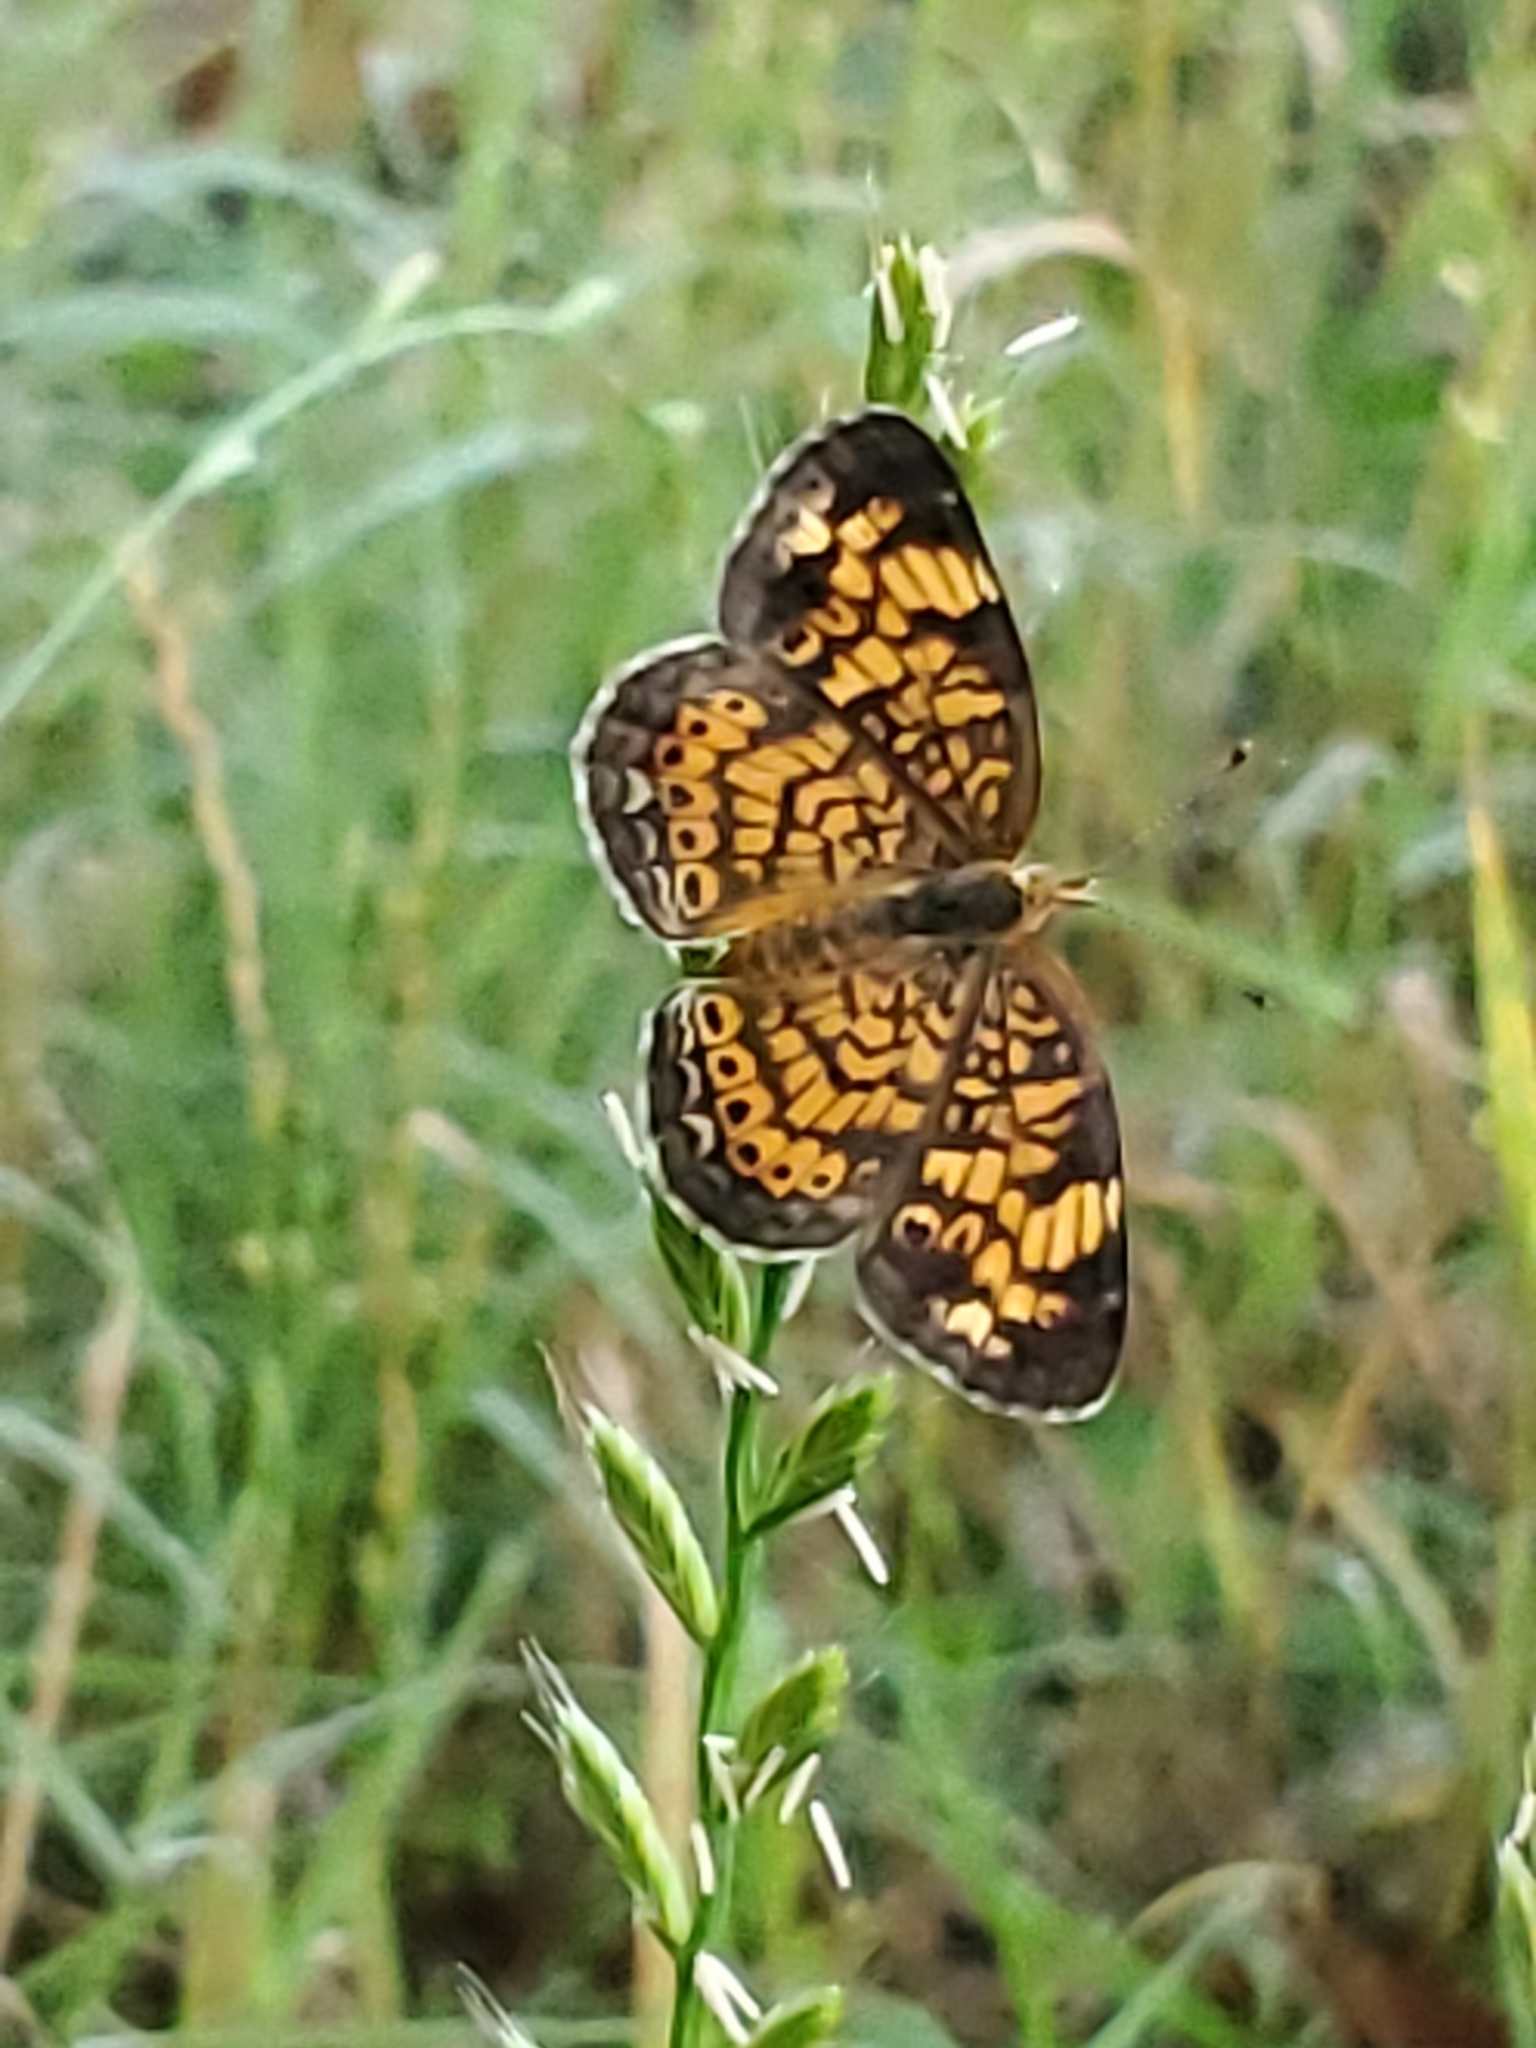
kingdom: Animalia
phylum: Arthropoda
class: Insecta
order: Lepidoptera
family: Nymphalidae
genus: Phyciodes
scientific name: Phyciodes tharos
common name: Pearl crescent
